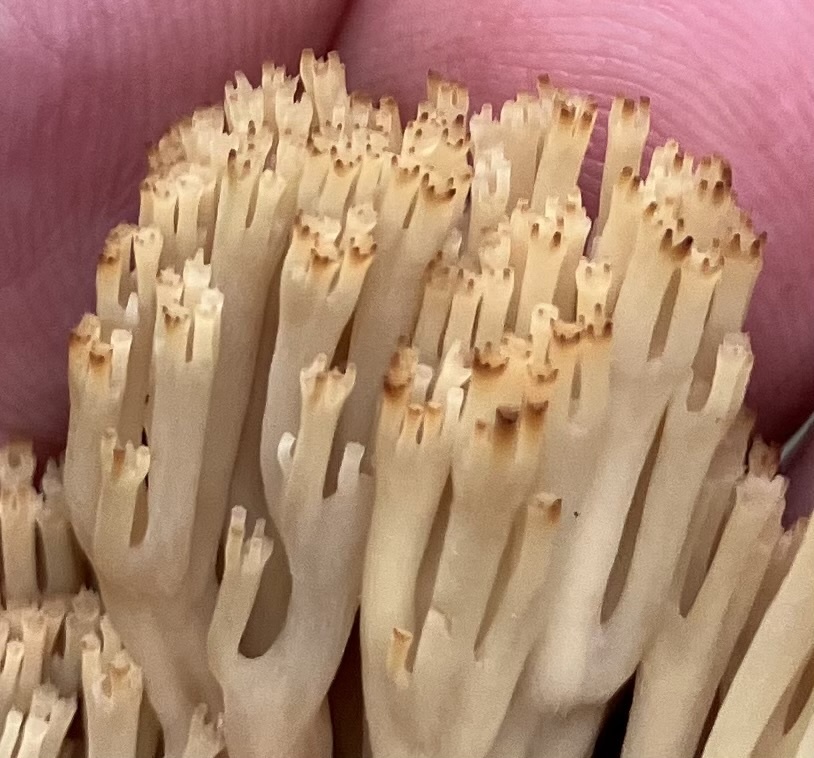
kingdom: Fungi
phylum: Basidiomycota
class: Agaricomycetes
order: Russulales
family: Auriscalpiaceae
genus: Artomyces
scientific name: Artomyces pyxidatus
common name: Crown-tipped coral fungus
